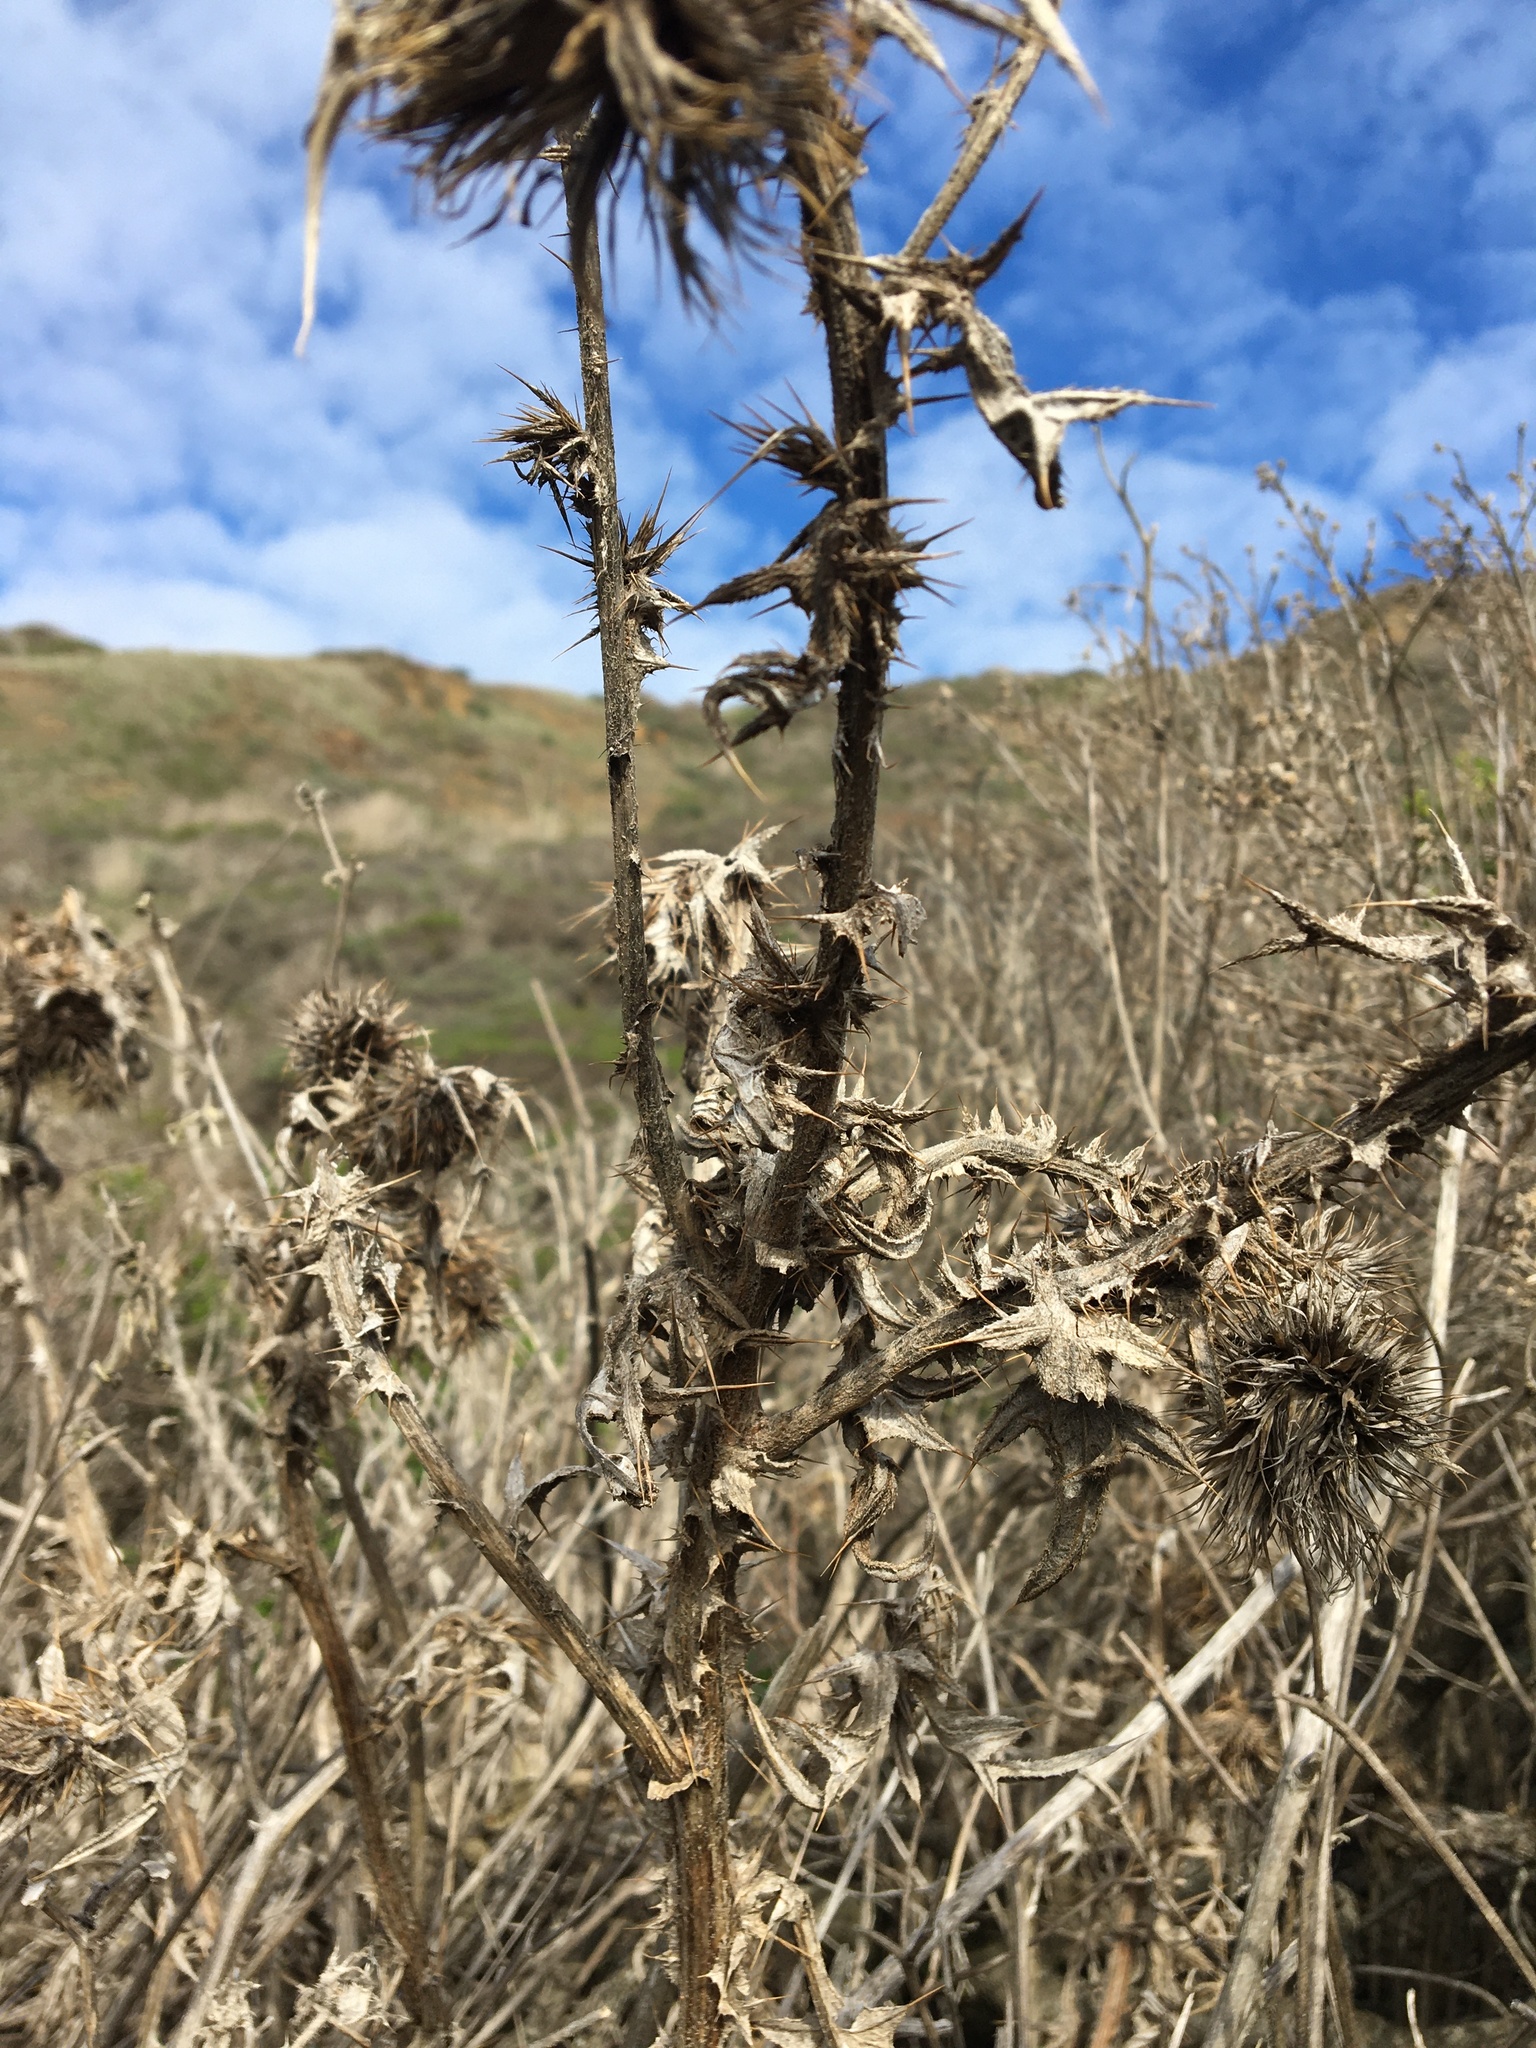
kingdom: Plantae
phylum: Tracheophyta
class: Magnoliopsida
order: Asterales
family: Asteraceae
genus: Cirsium
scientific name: Cirsium vulgare
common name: Bull thistle
